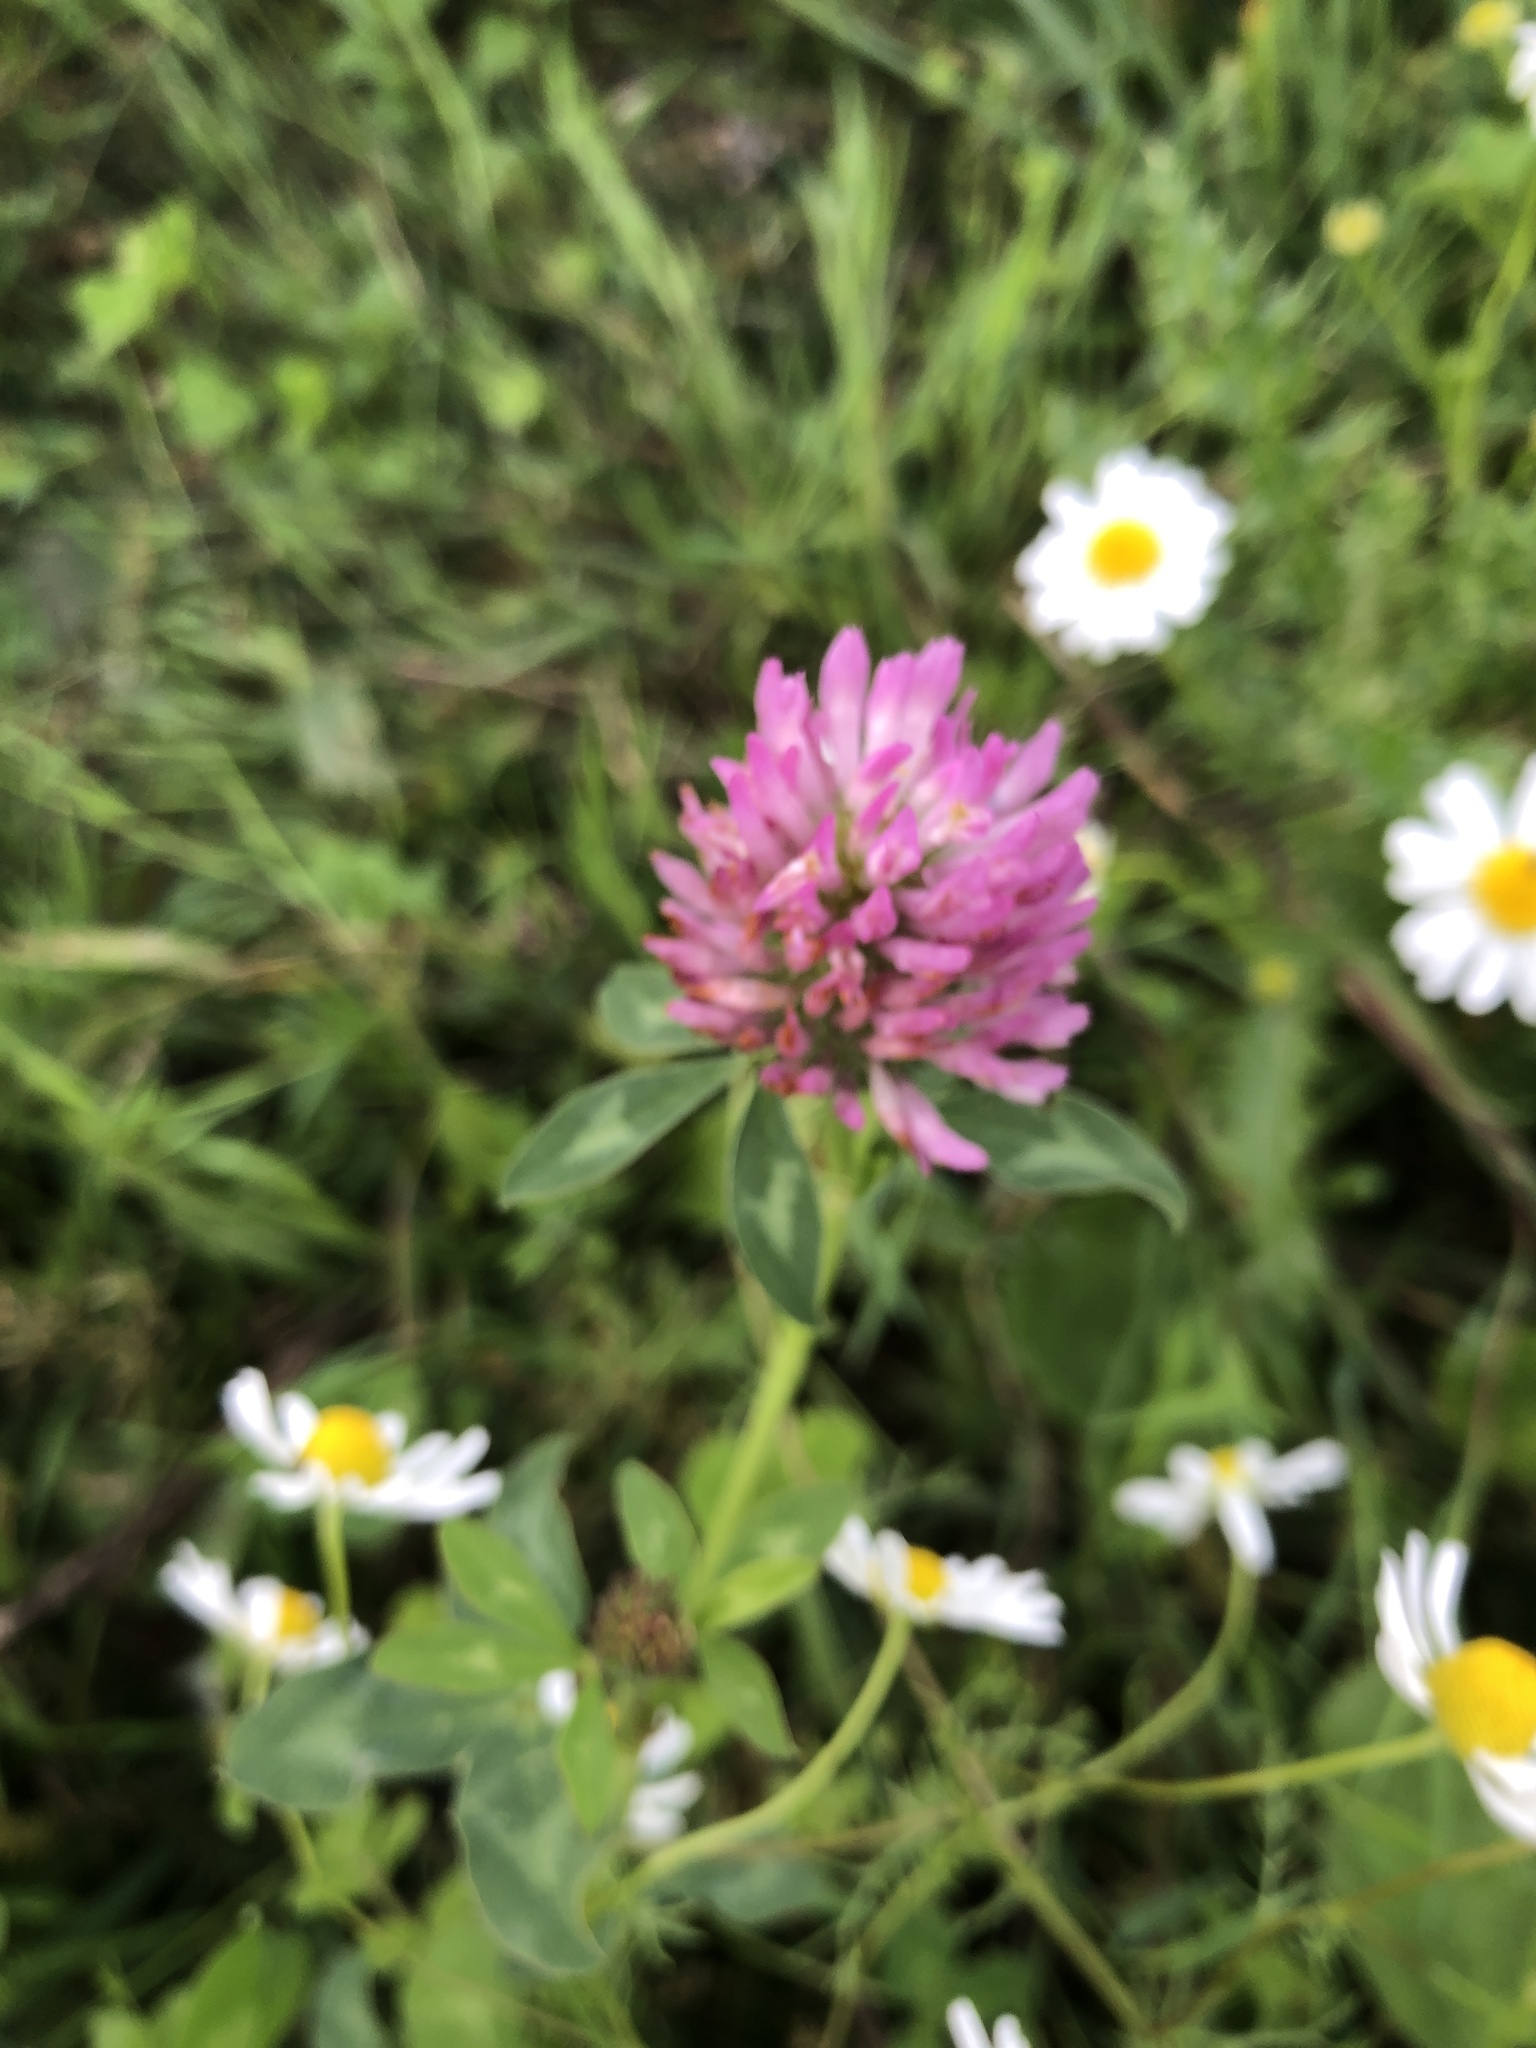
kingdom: Plantae
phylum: Tracheophyta
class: Magnoliopsida
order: Fabales
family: Fabaceae
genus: Trifolium
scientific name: Trifolium pratense
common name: Red clover
